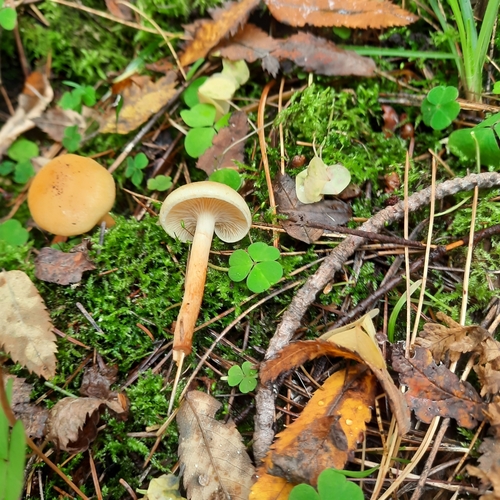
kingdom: Fungi
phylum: Basidiomycota
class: Agaricomycetes
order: Agaricales
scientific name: Agaricales
